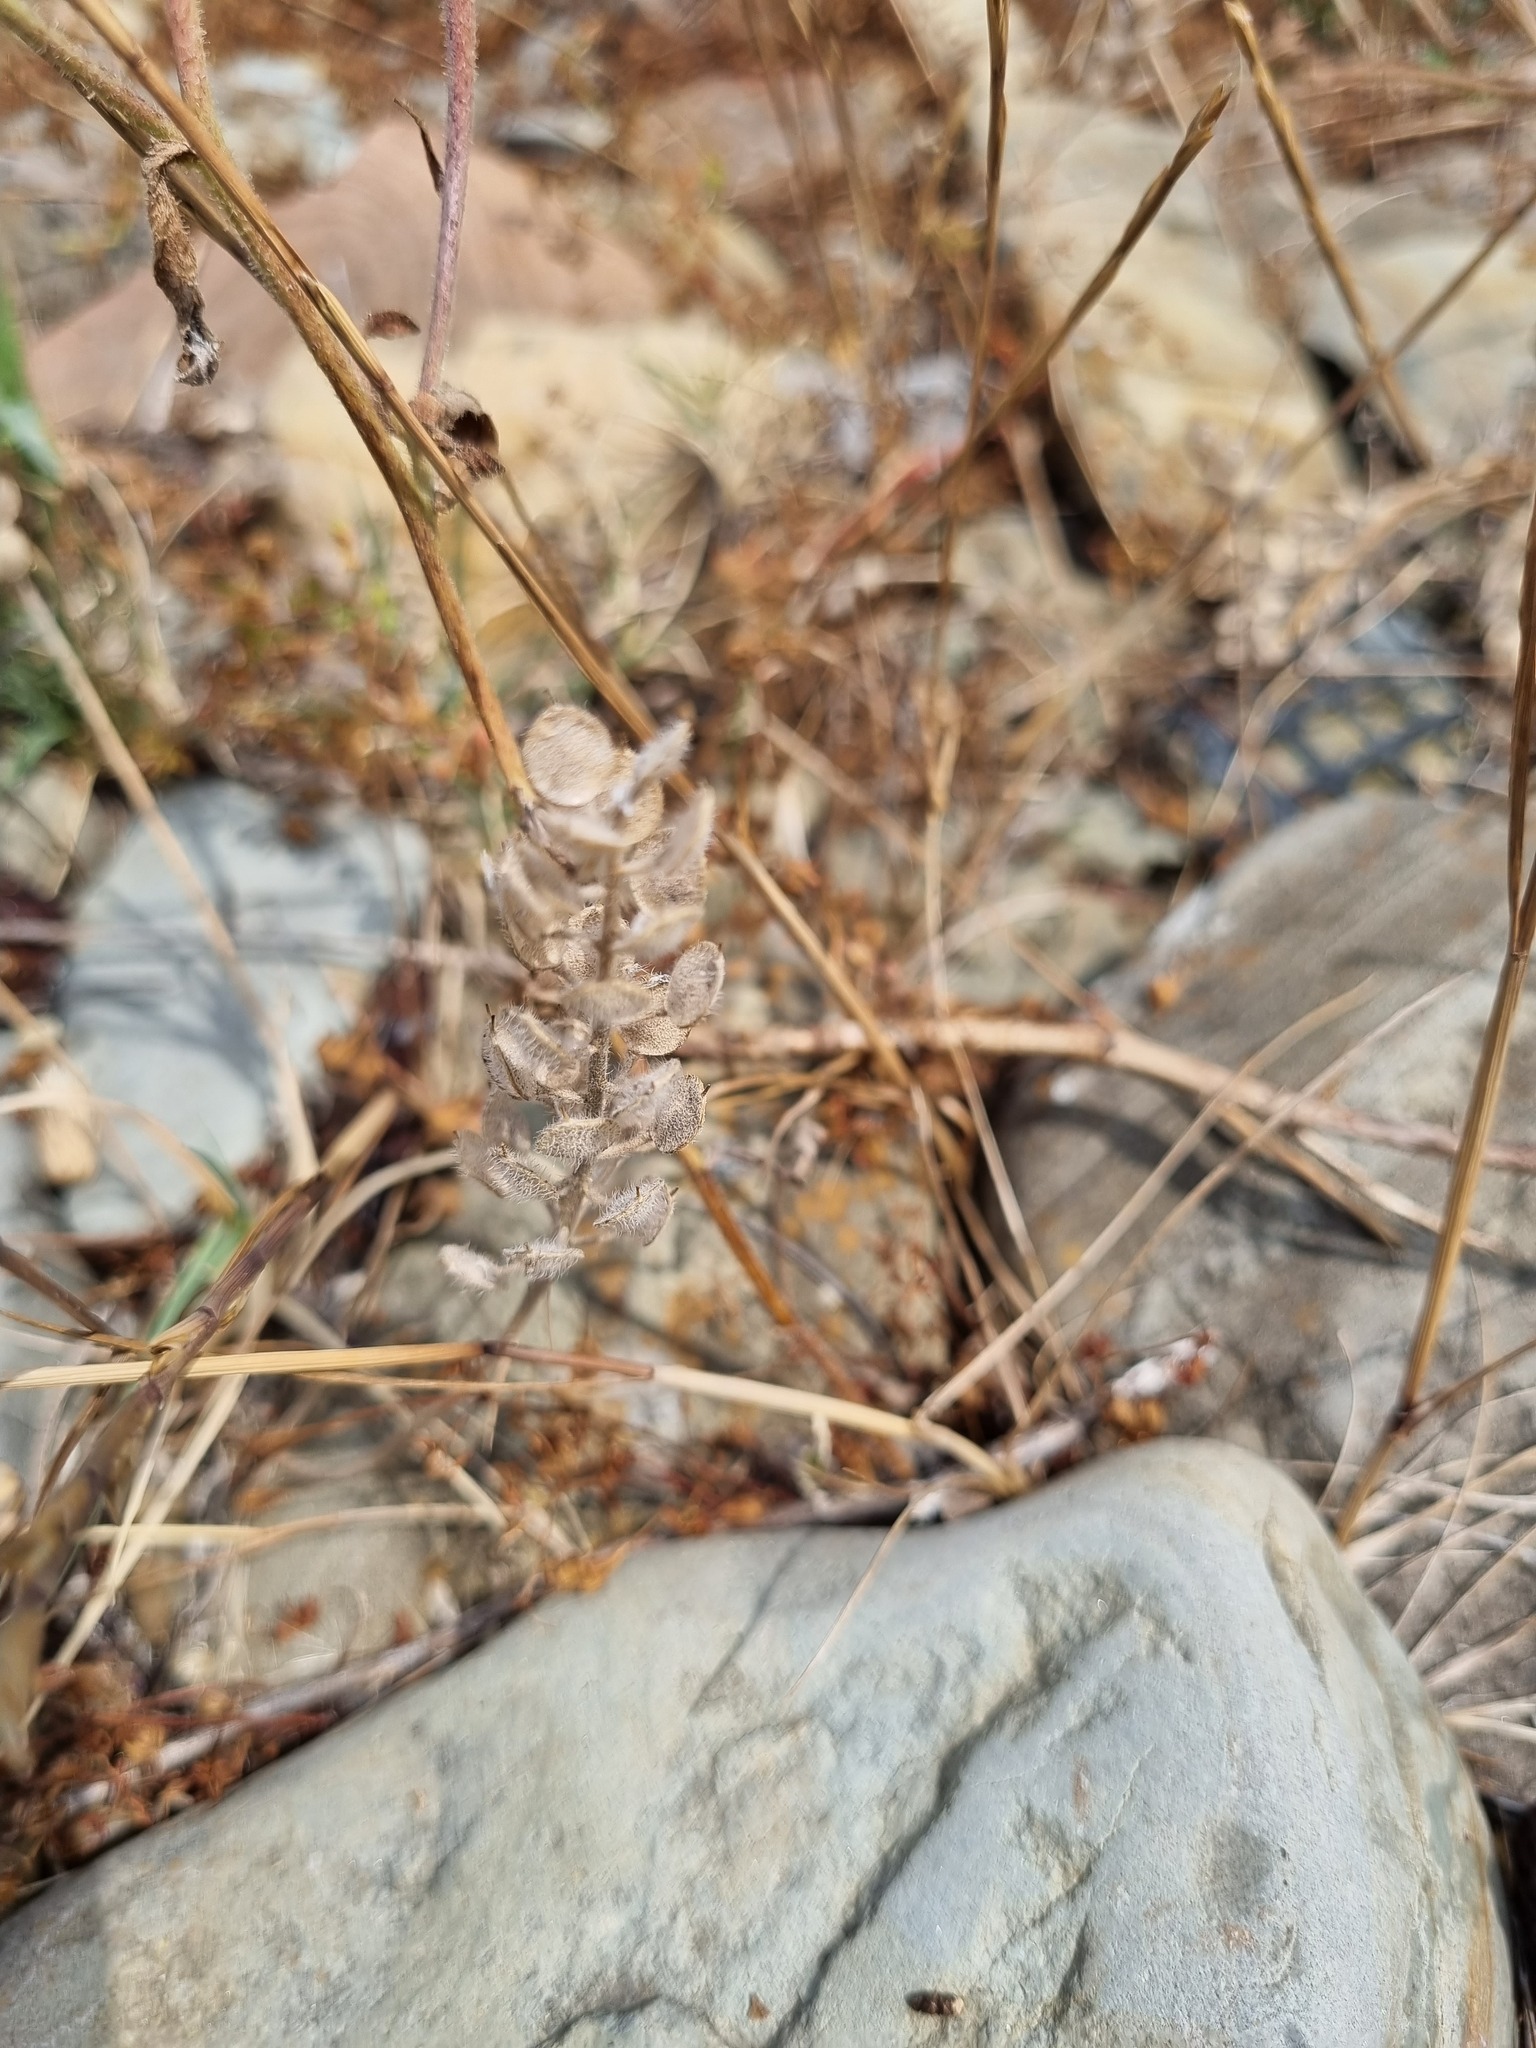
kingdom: Plantae
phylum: Tracheophyta
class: Magnoliopsida
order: Brassicales
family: Brassicaceae
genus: Alyssum
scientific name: Alyssum hirsutum
